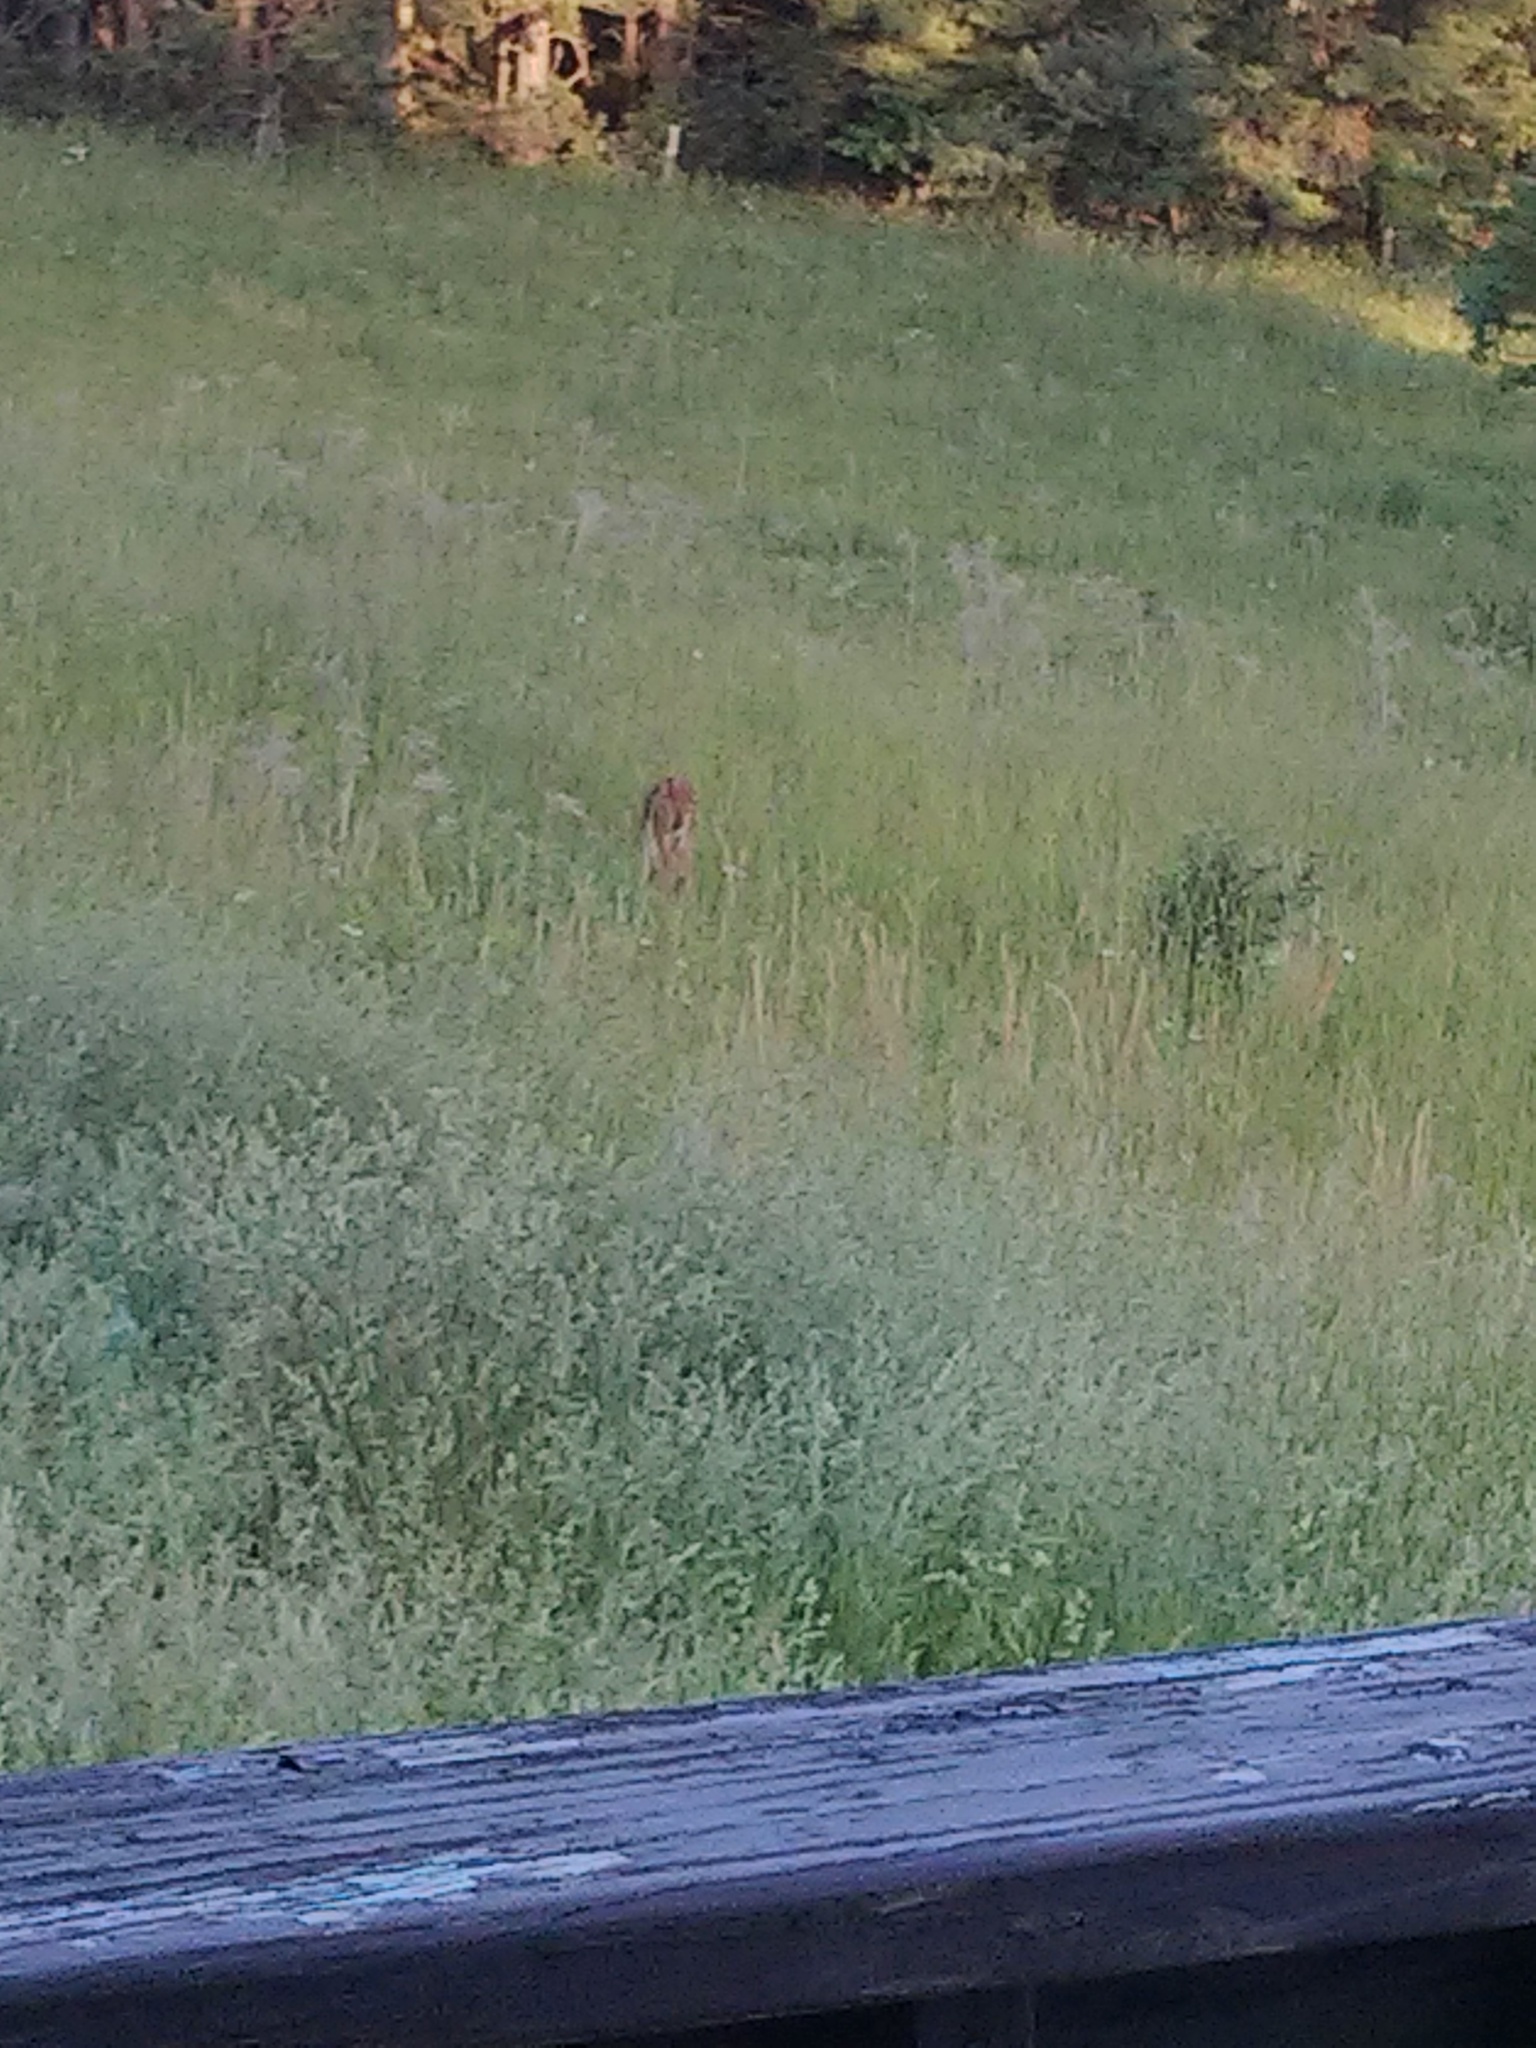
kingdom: Animalia
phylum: Chordata
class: Mammalia
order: Artiodactyla
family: Cervidae
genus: Odocoileus
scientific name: Odocoileus virginianus
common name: White-tailed deer
